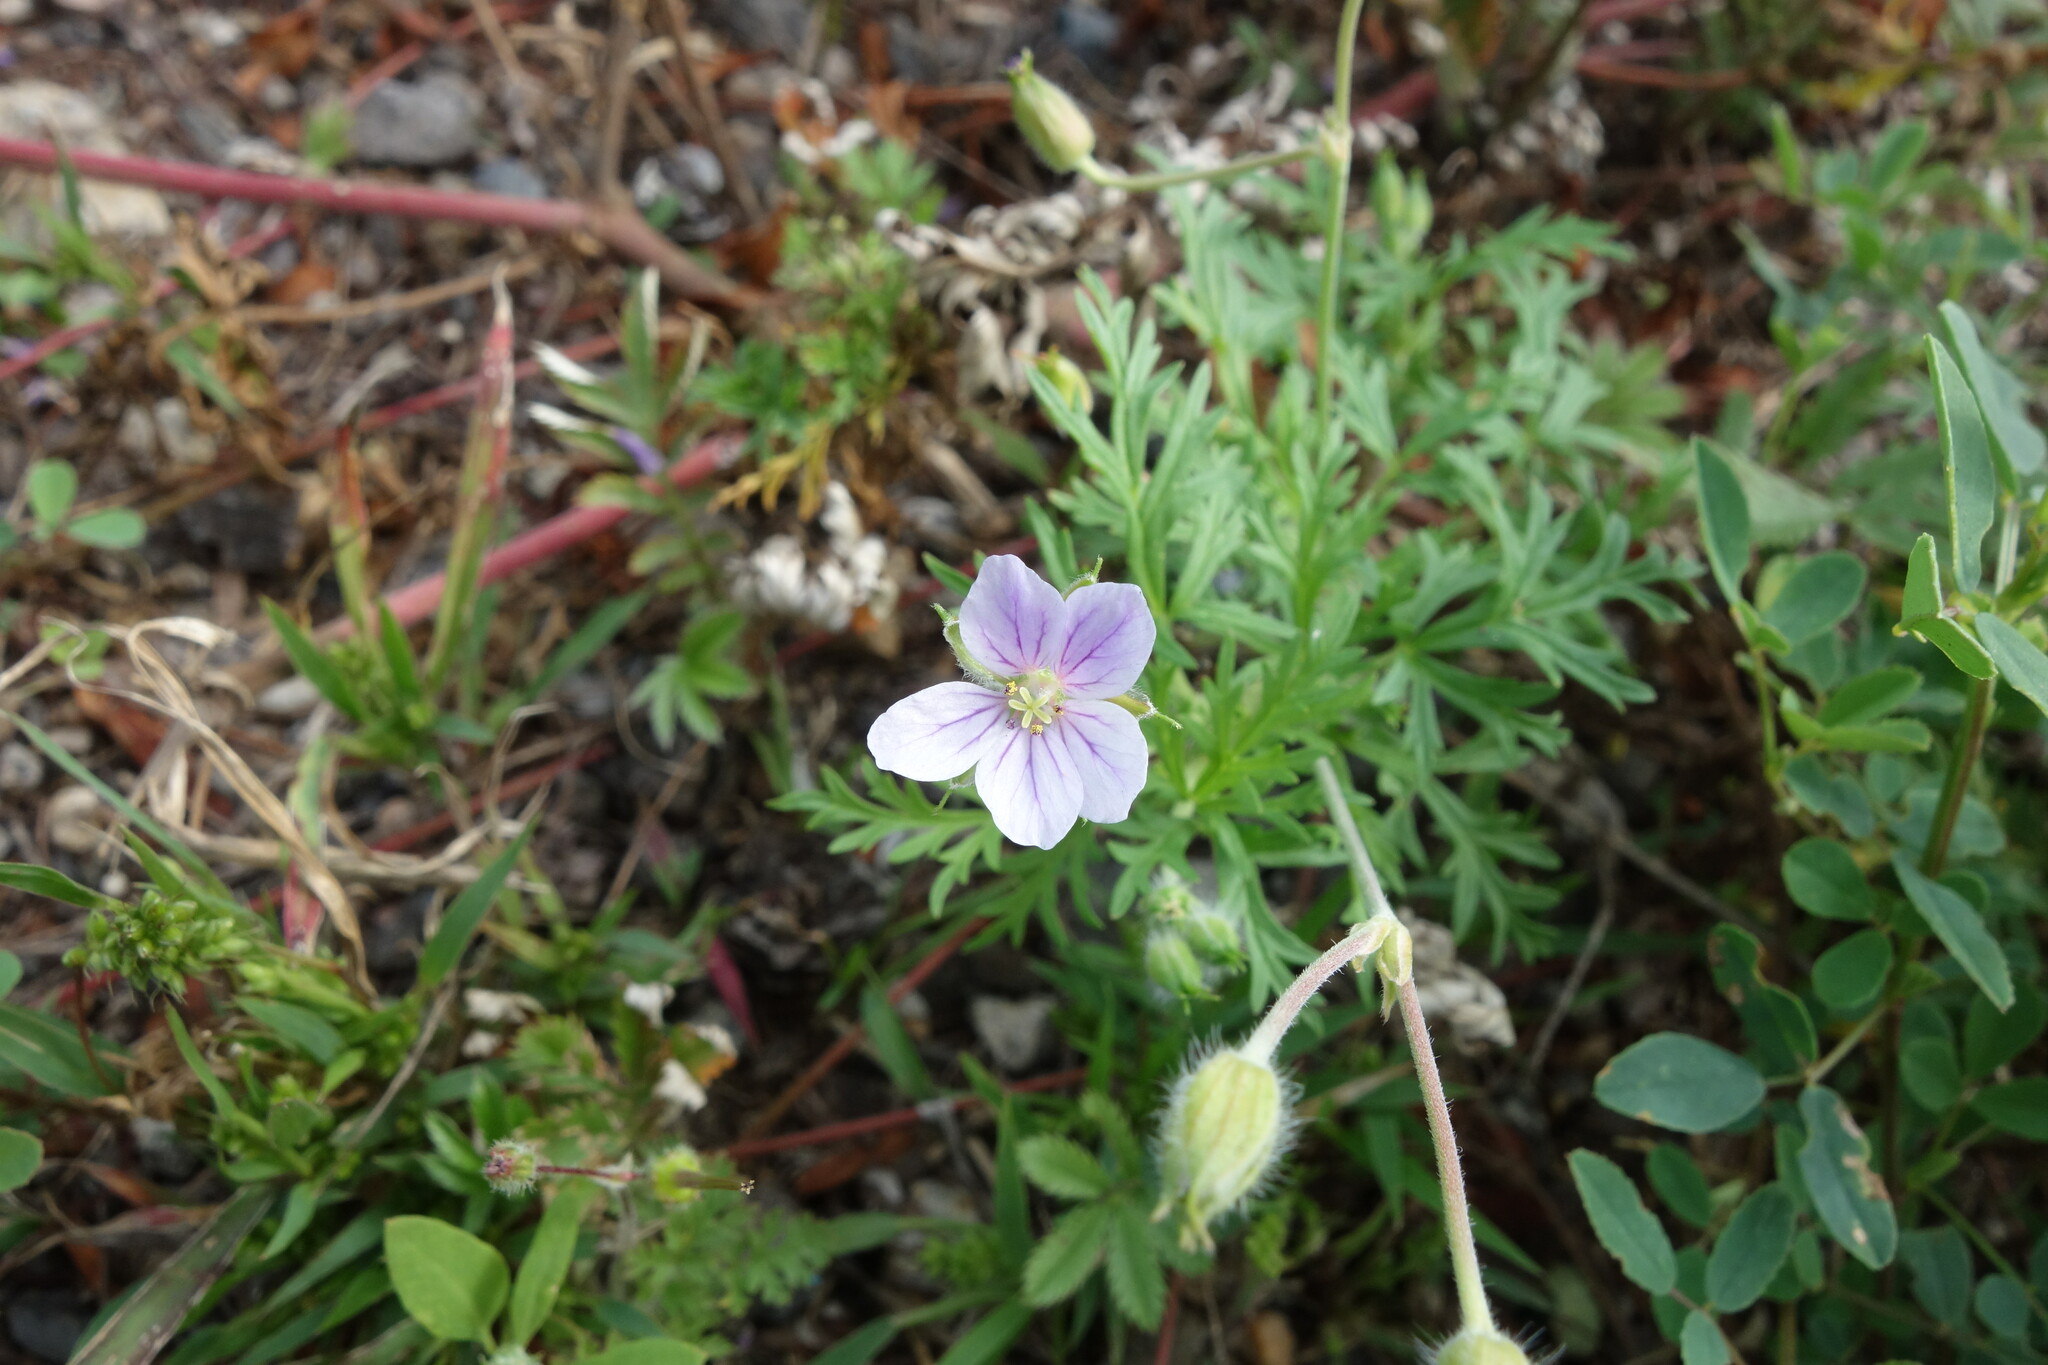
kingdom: Plantae
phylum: Tracheophyta
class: Magnoliopsida
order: Geraniales
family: Geraniaceae
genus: Erodium
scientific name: Erodium stephanianum
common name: Stephen's stork's bill
